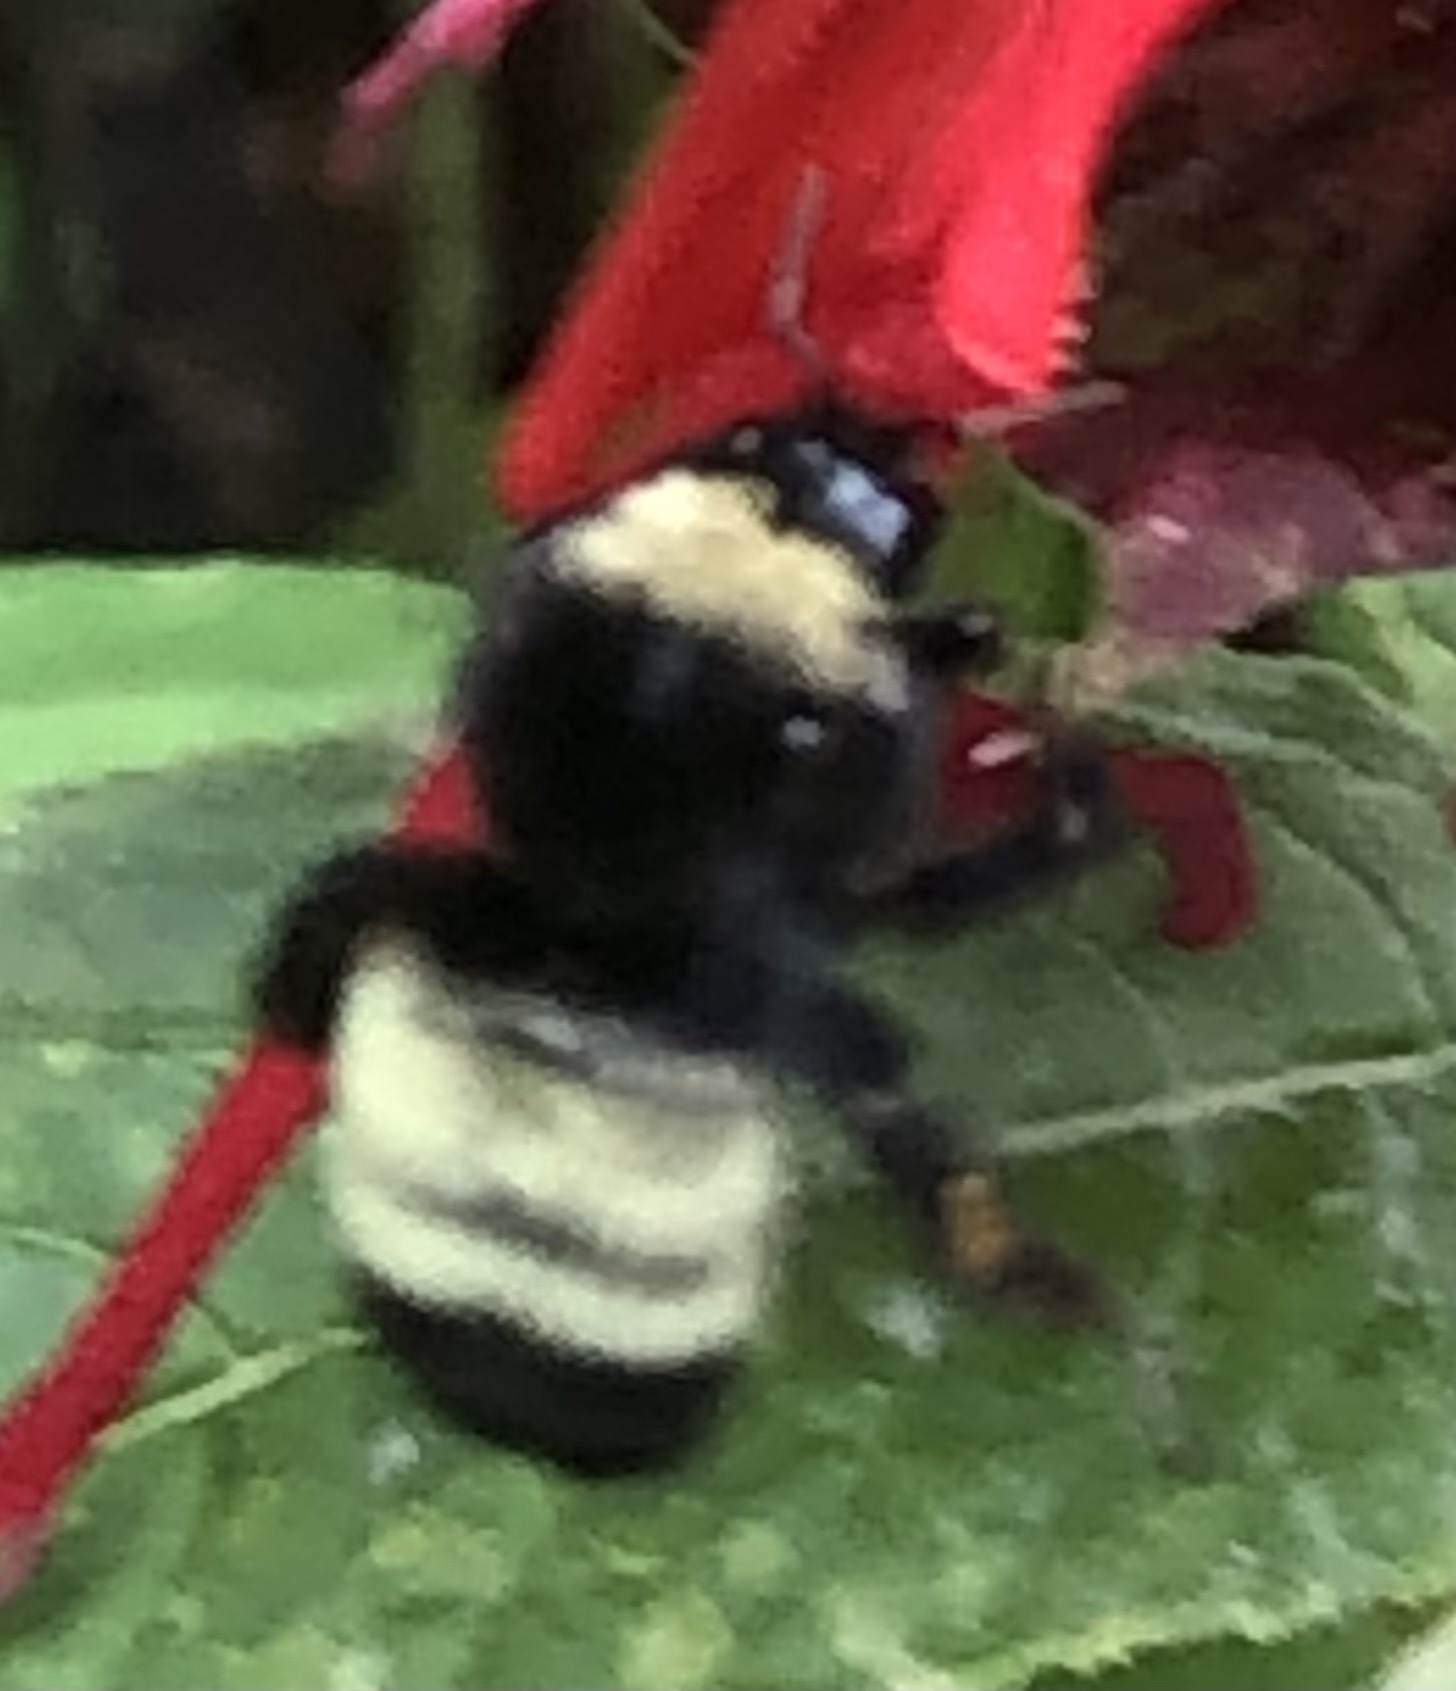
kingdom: Animalia
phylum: Arthropoda
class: Insecta
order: Hymenoptera
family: Apidae
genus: Bombus
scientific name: Bombus pensylvanicus
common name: Bumble bee
